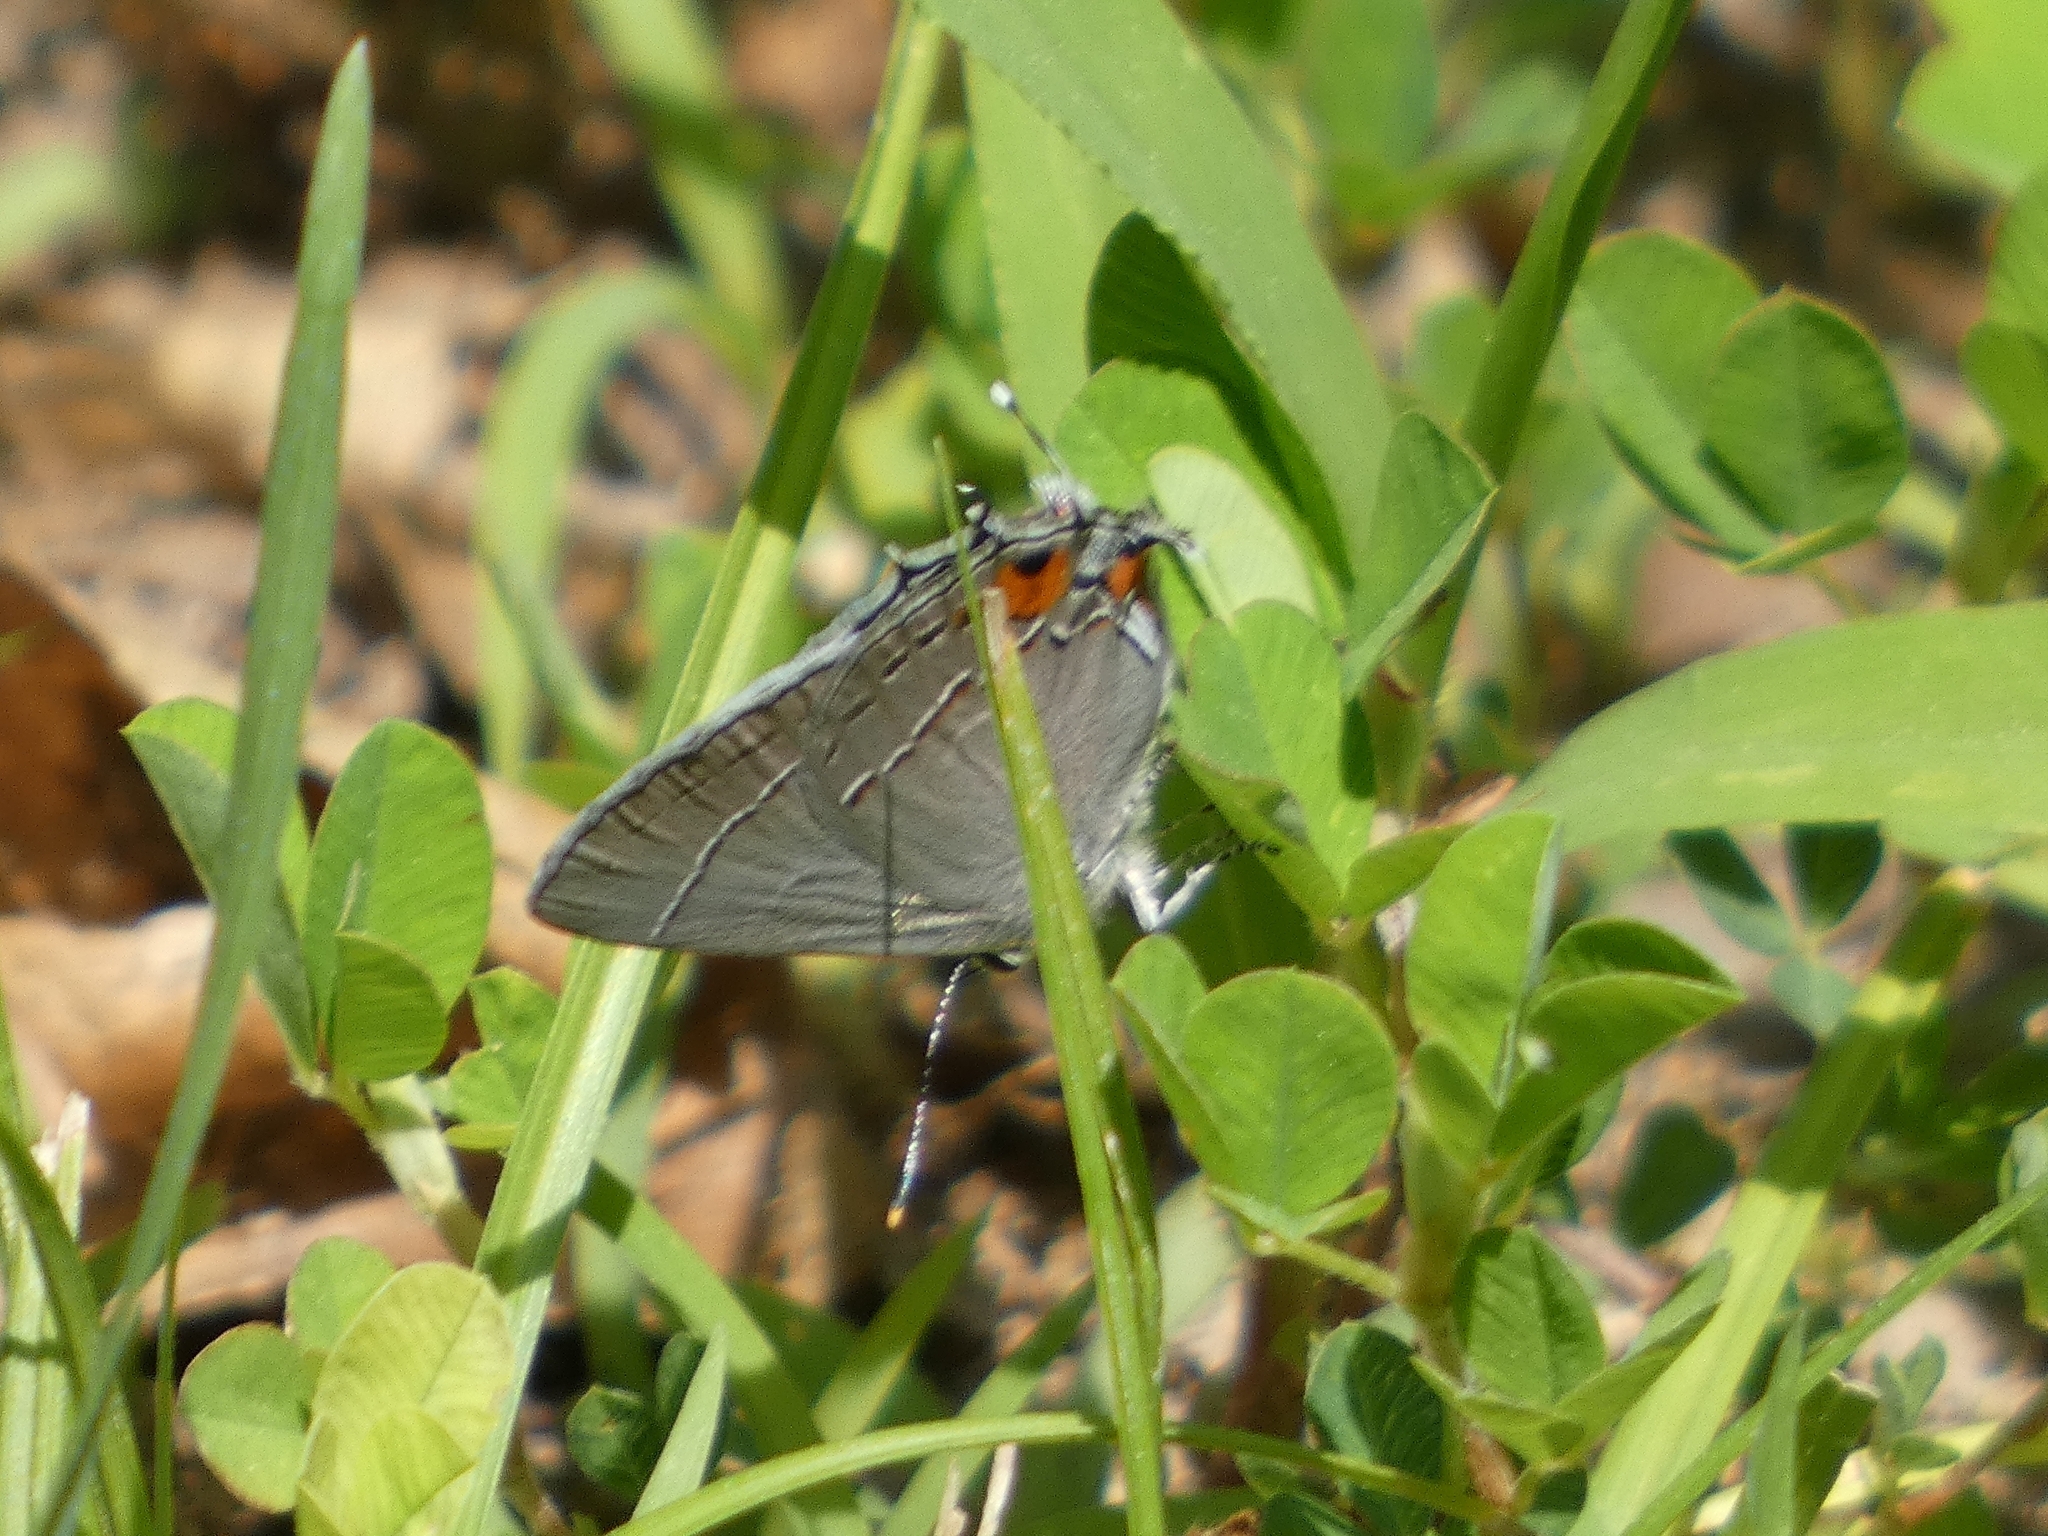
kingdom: Animalia
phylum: Arthropoda
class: Insecta
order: Lepidoptera
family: Lycaenidae
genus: Strymon
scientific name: Strymon melinus
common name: Gray hairstreak
